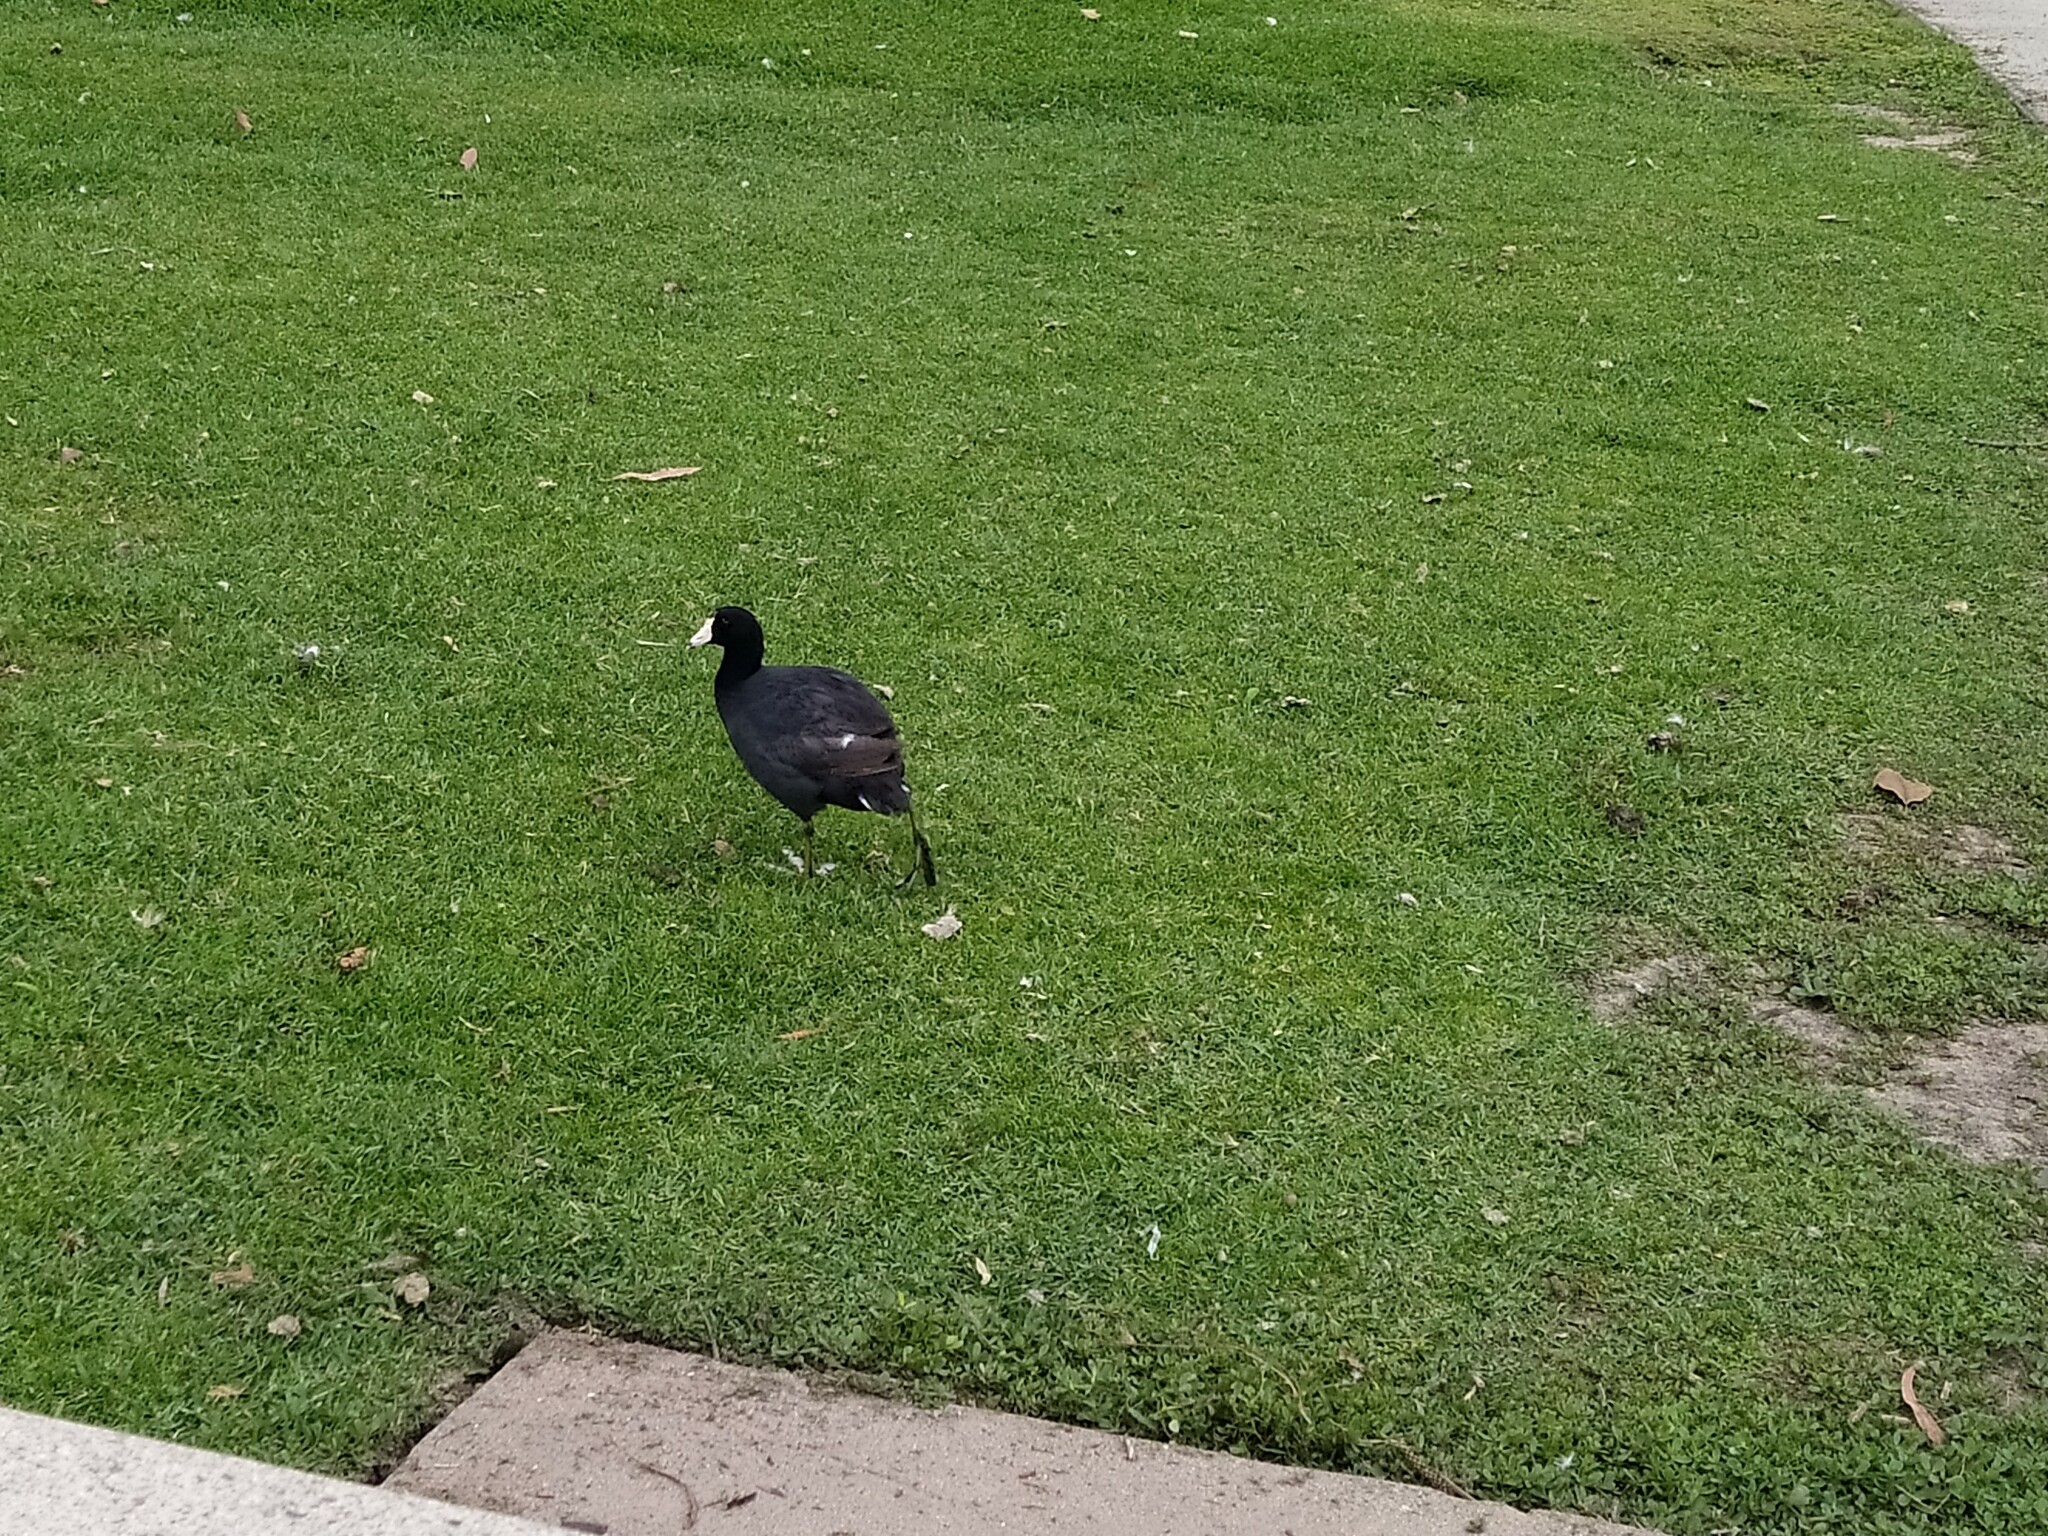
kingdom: Animalia
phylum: Chordata
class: Aves
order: Gruiformes
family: Rallidae
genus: Fulica
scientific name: Fulica americana
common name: American coot
